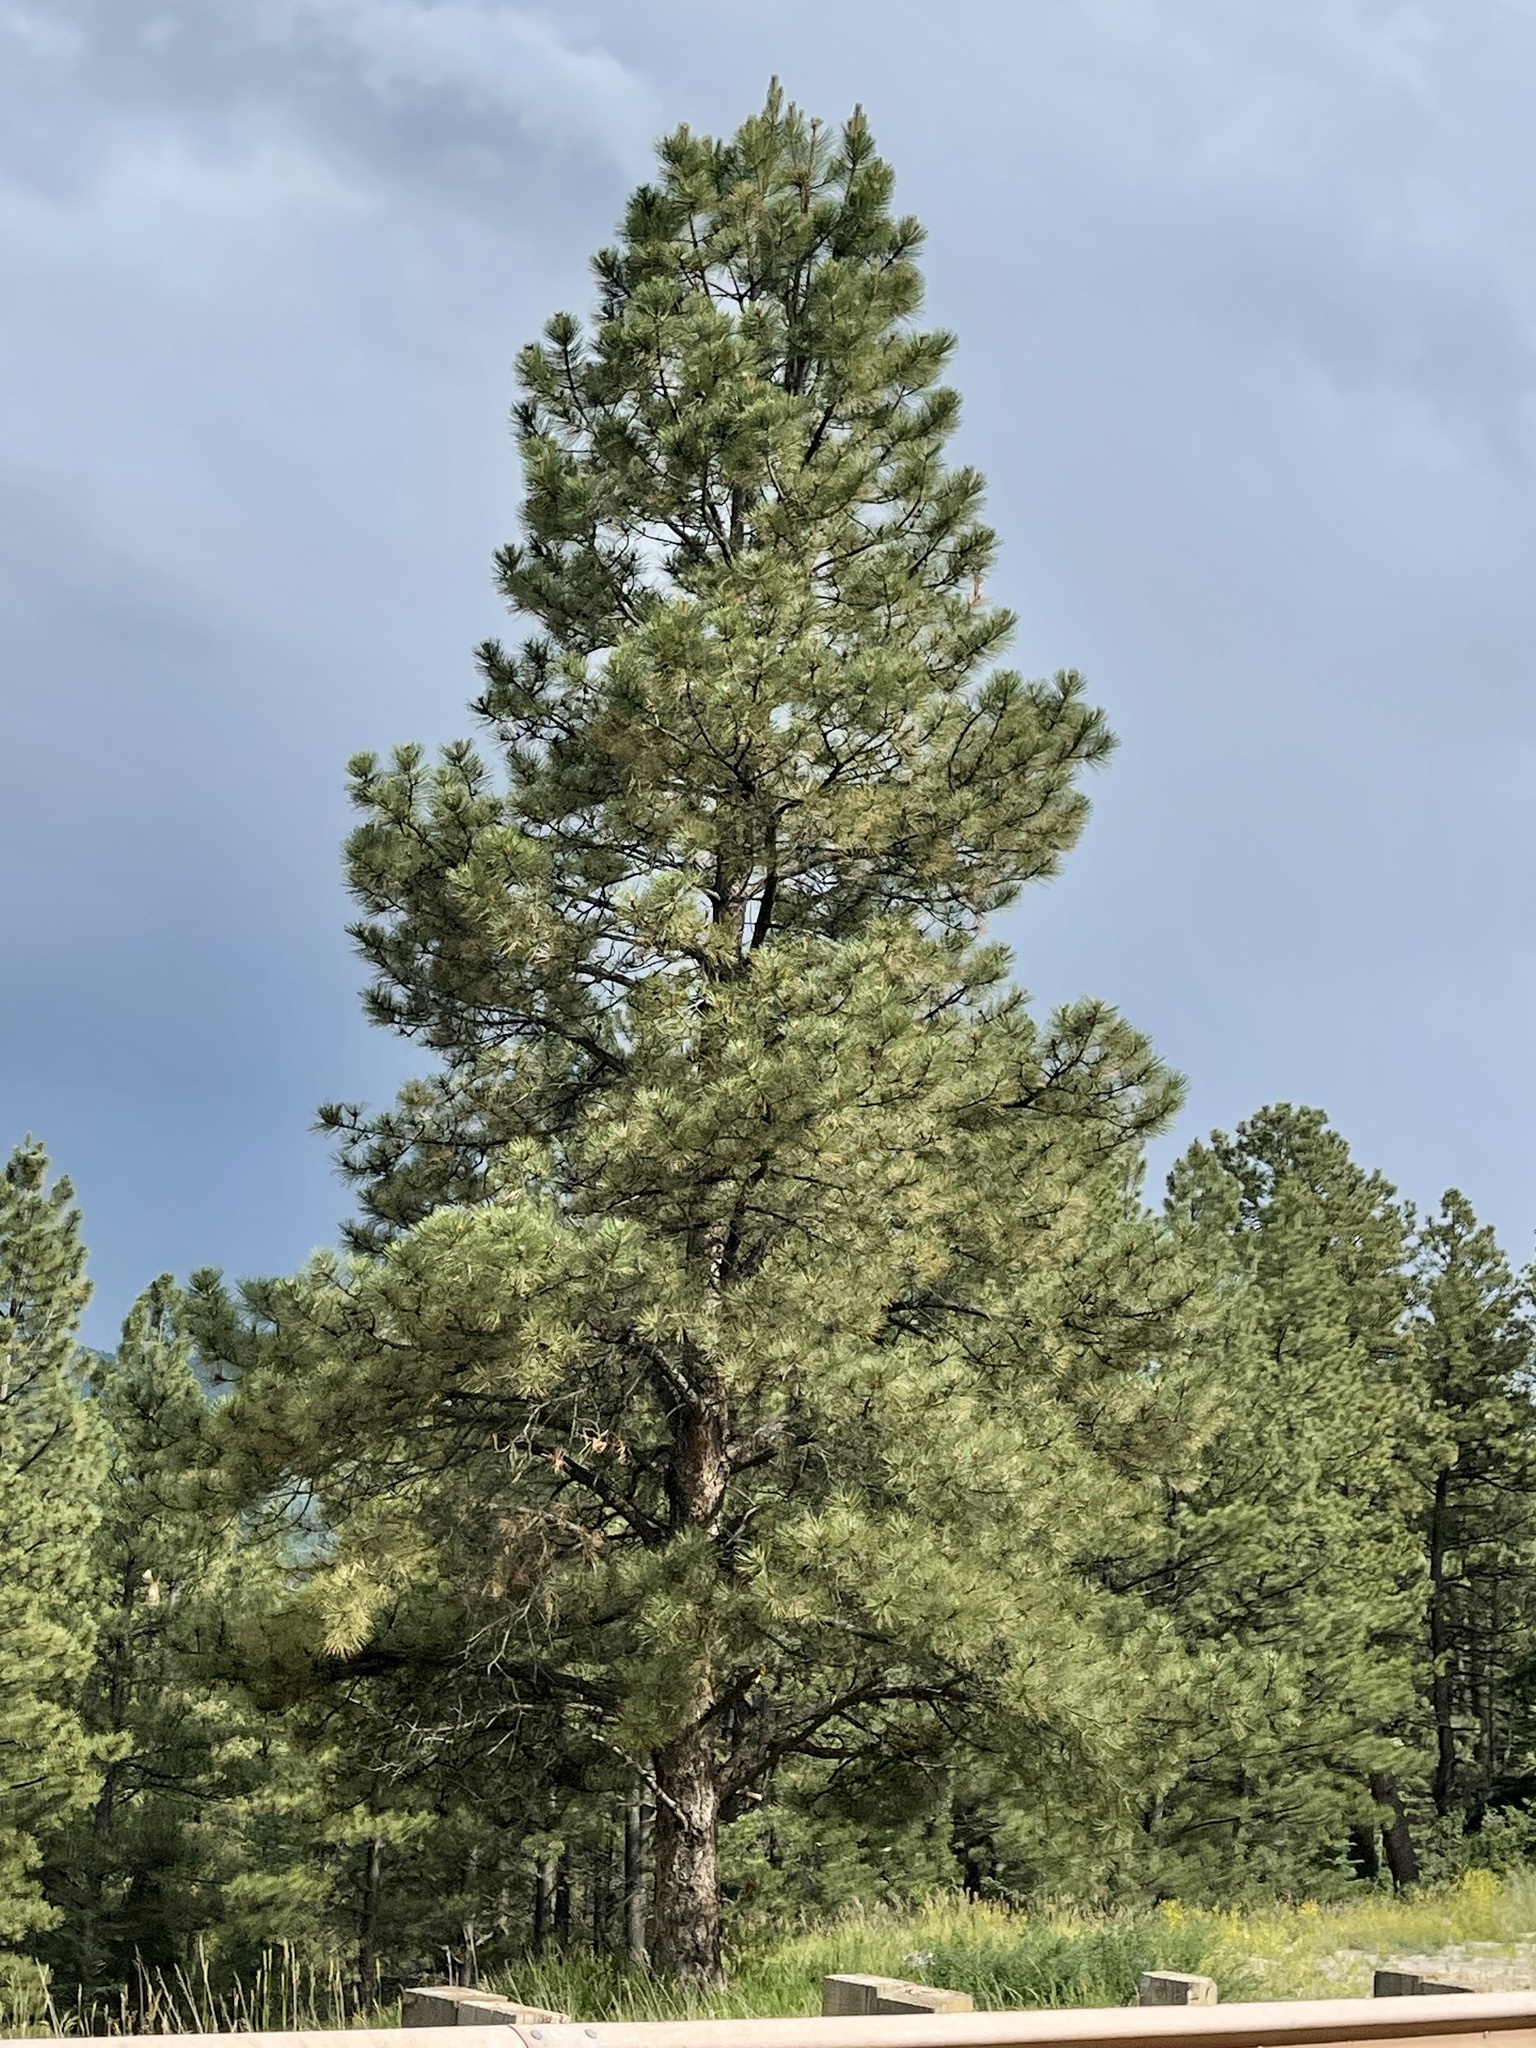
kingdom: Plantae
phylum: Tracheophyta
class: Pinopsida
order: Pinales
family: Pinaceae
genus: Pinus
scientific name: Pinus ponderosa
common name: Western yellow-pine
